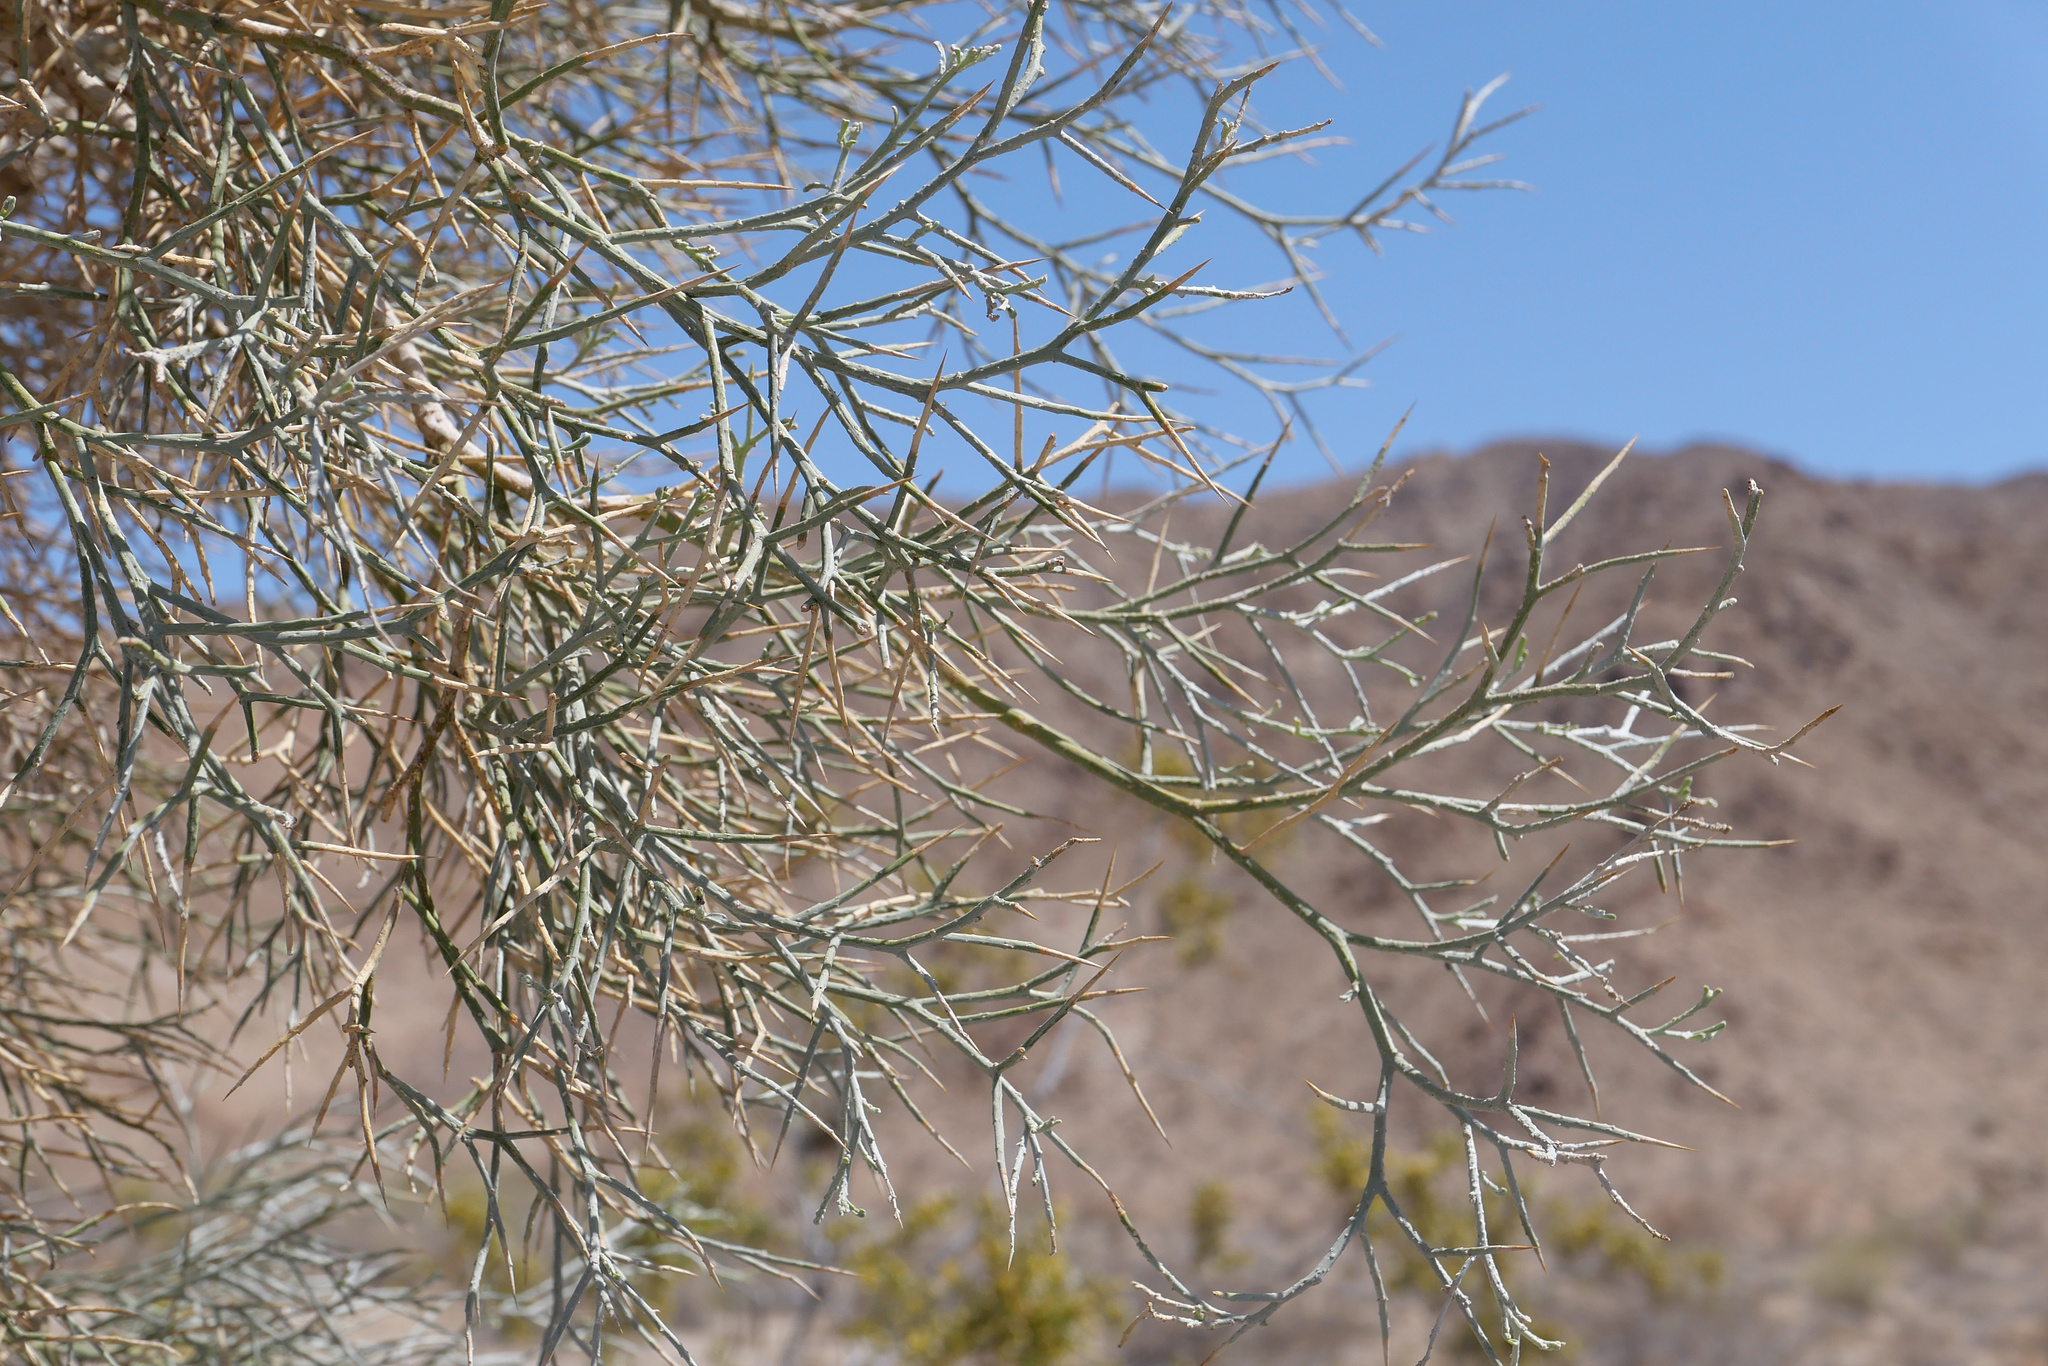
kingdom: Plantae
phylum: Tracheophyta
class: Magnoliopsida
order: Fabales
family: Fabaceae
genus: Psorothamnus
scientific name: Psorothamnus spinosus
